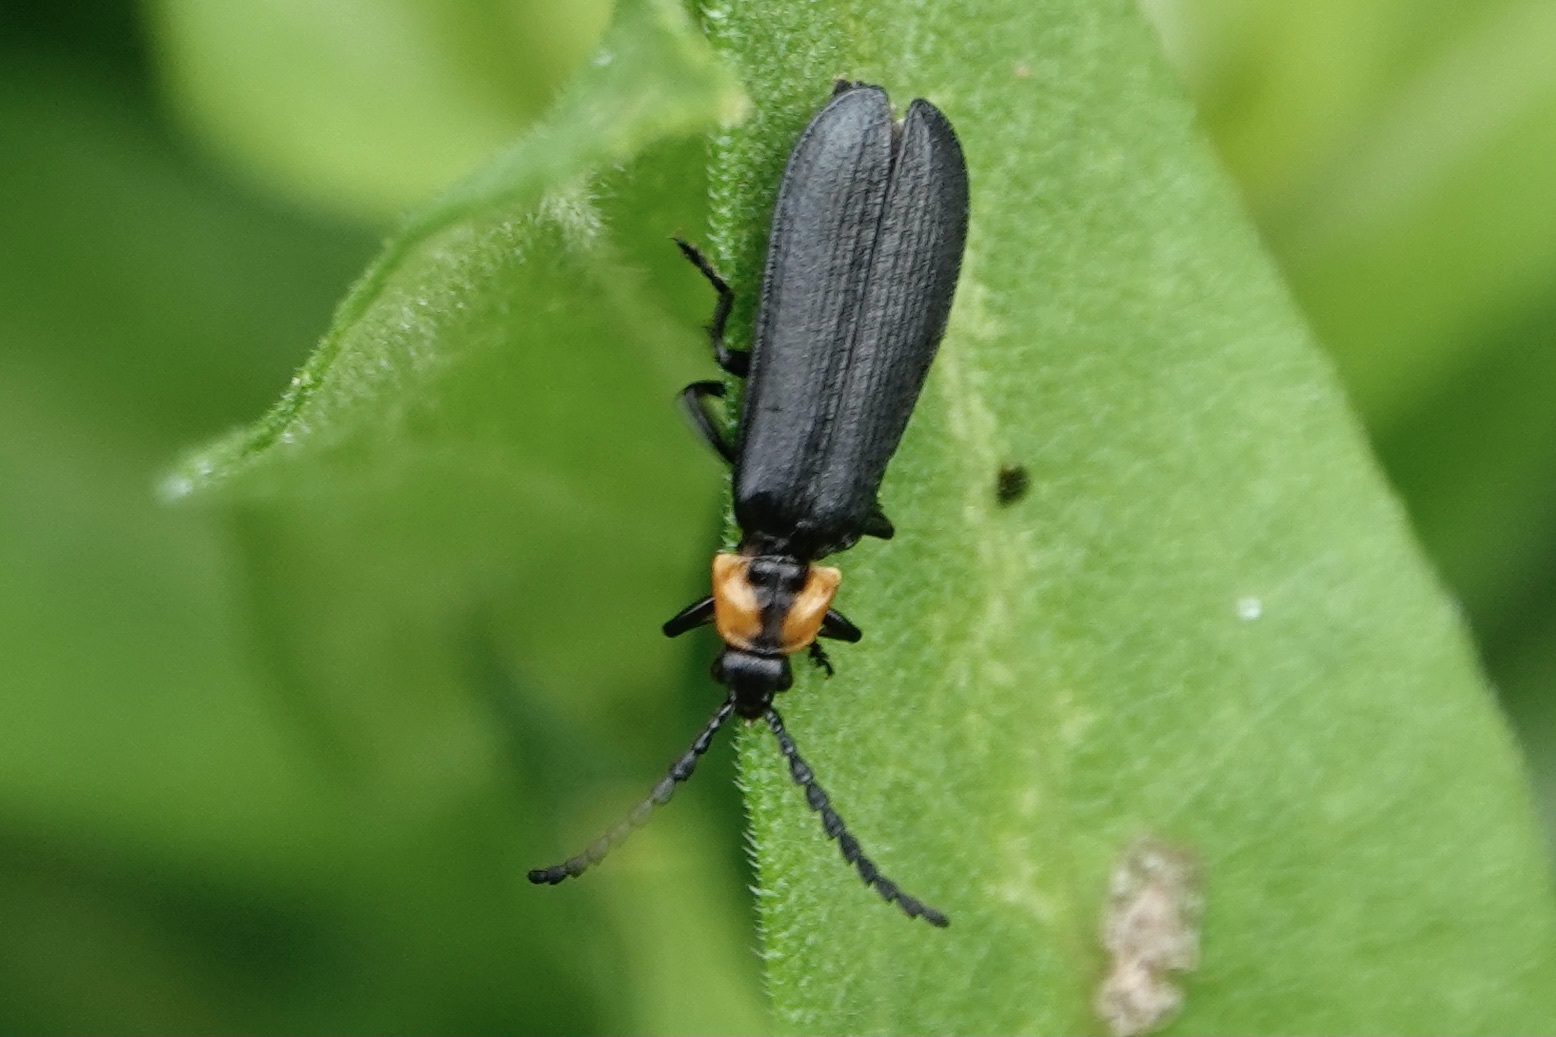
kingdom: Animalia
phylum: Arthropoda
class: Insecta
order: Coleoptera
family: Lycidae
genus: Calochromus
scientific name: Calochromus perfacetus
